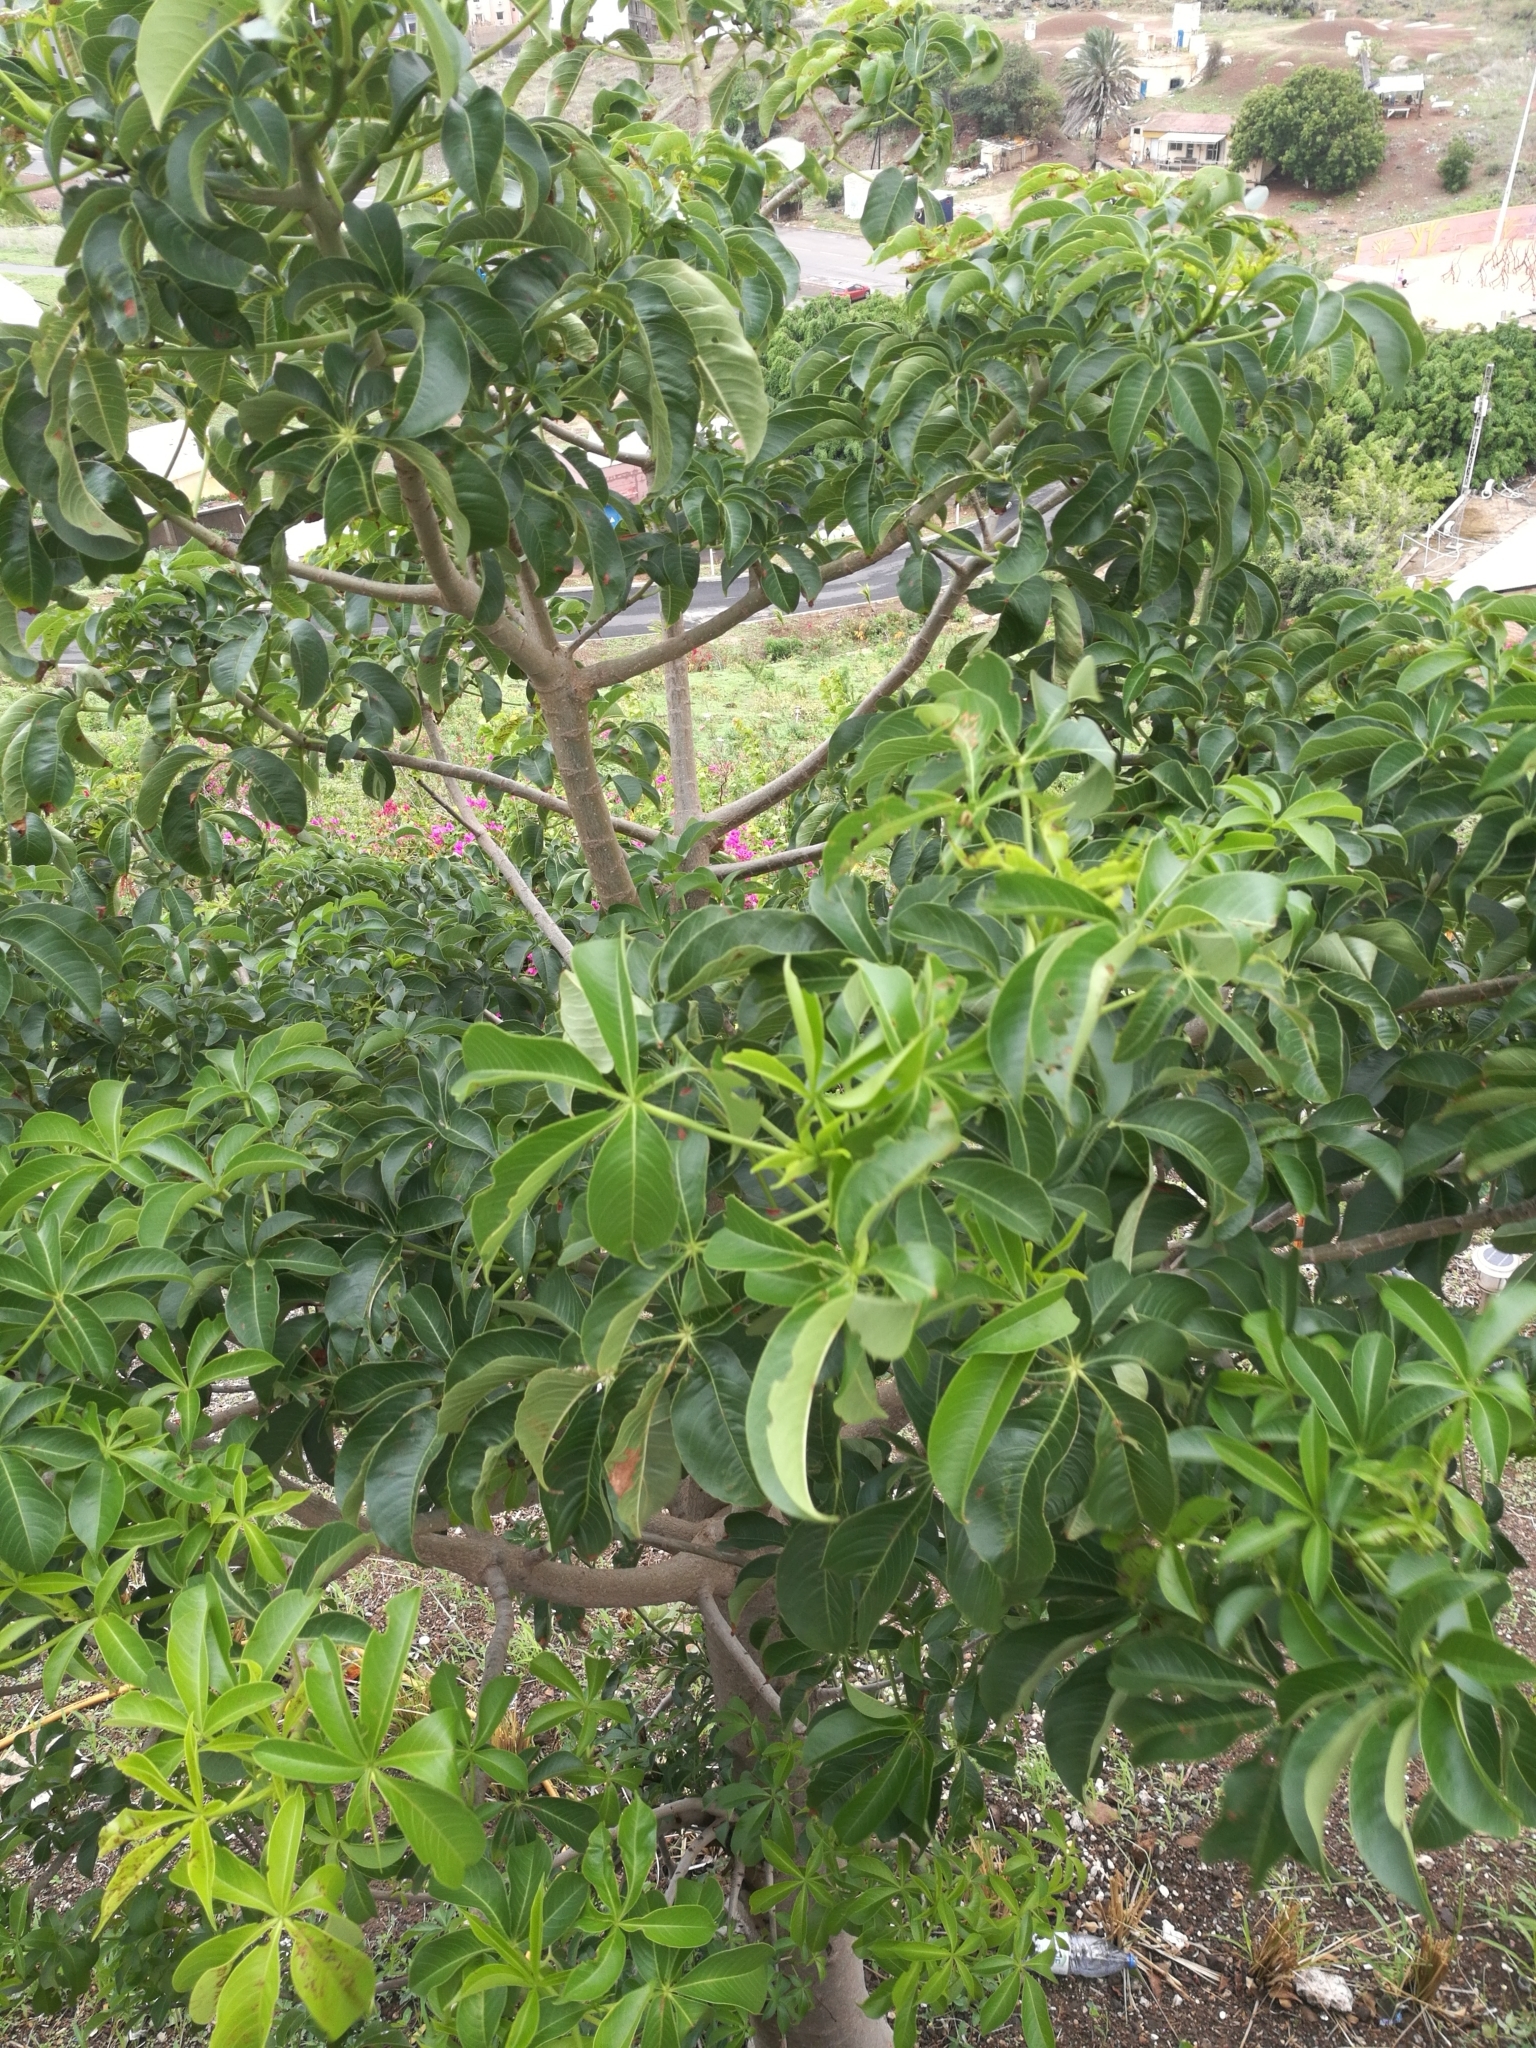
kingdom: Plantae
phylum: Tracheophyta
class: Magnoliopsida
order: Malvales
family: Malvaceae
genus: Adansonia
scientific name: Adansonia digitata
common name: Dead-rat-tree
